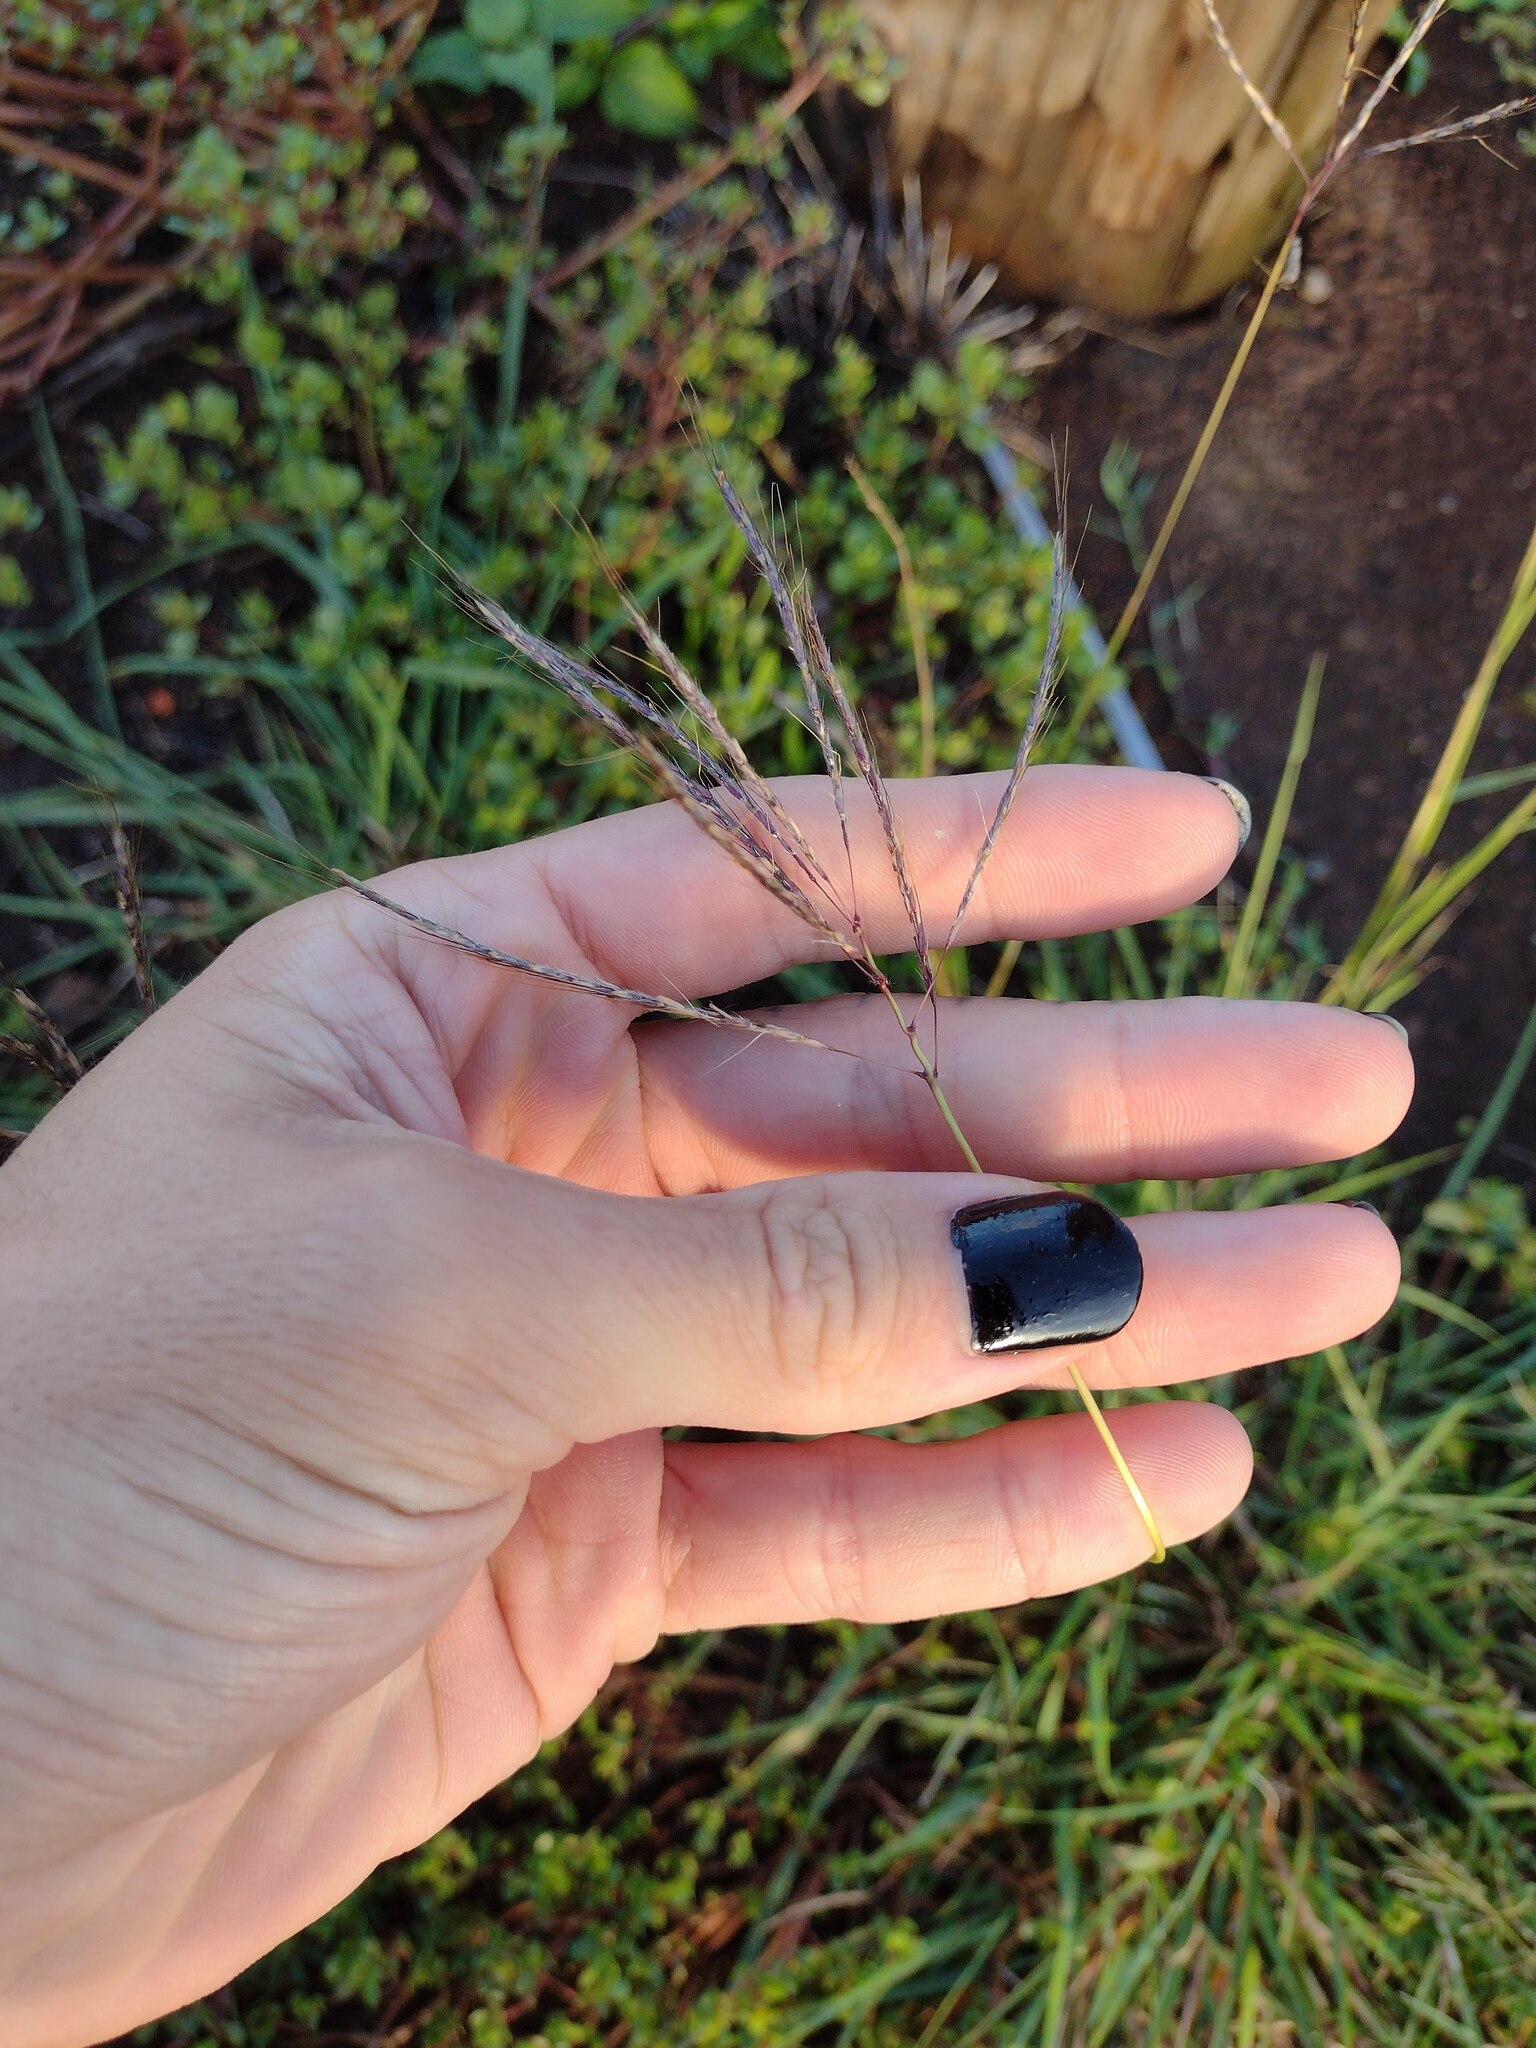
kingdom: Plantae
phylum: Tracheophyta
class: Liliopsida
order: Poales
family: Poaceae
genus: Dichanthium
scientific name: Dichanthium annulatum
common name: Kleberg's bluestem
